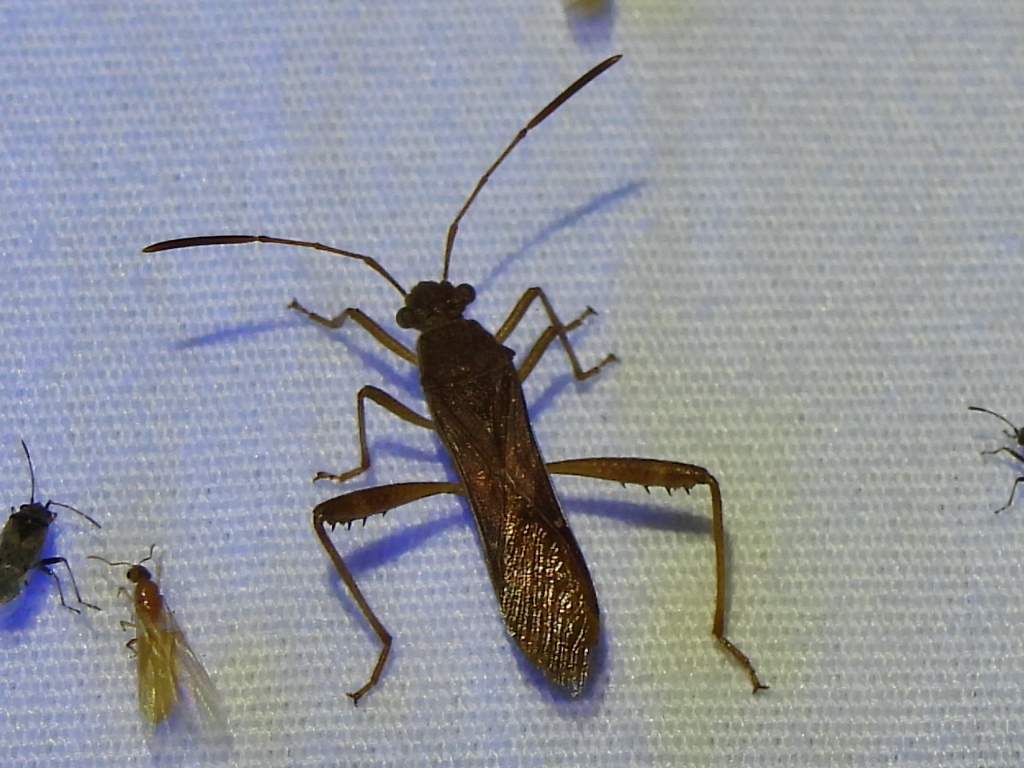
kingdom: Animalia
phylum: Arthropoda
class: Insecta
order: Hemiptera
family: Alydidae
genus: Burtinus
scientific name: Burtinus notatipennis
